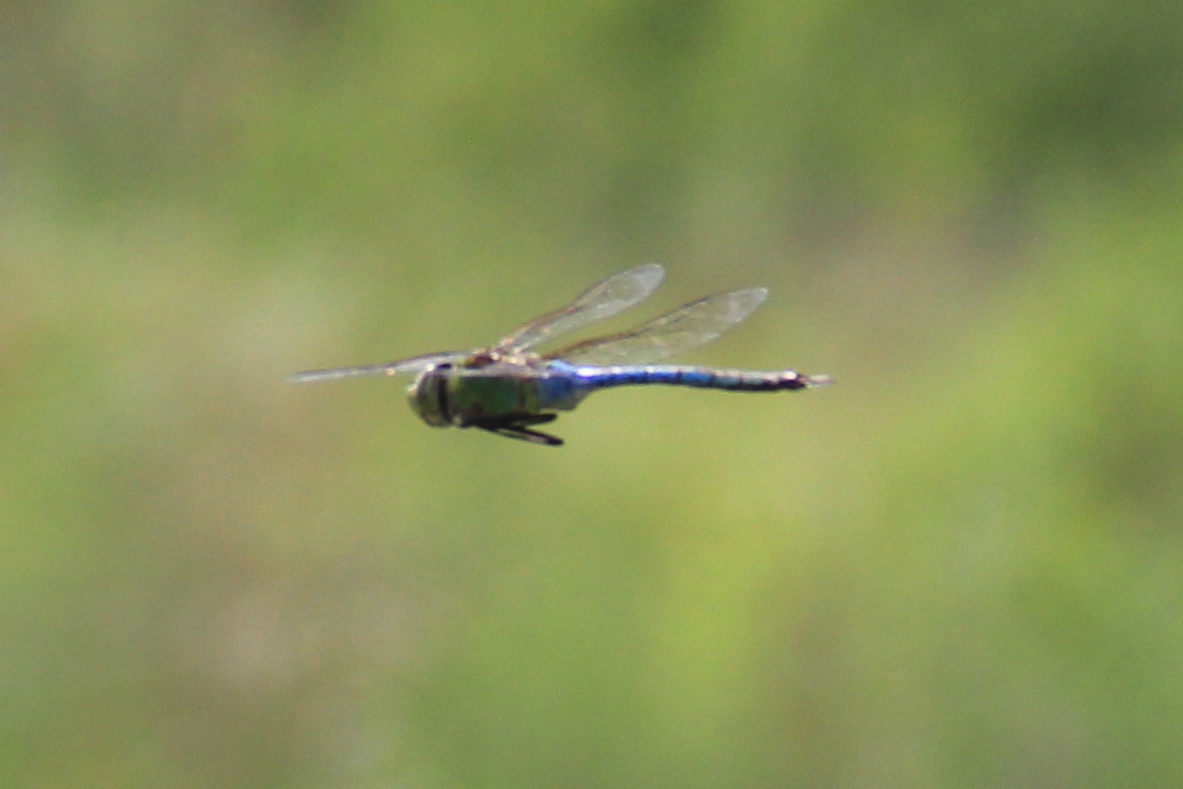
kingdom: Animalia
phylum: Arthropoda
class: Insecta
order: Odonata
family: Aeshnidae
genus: Anax
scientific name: Anax junius
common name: Common green darner
